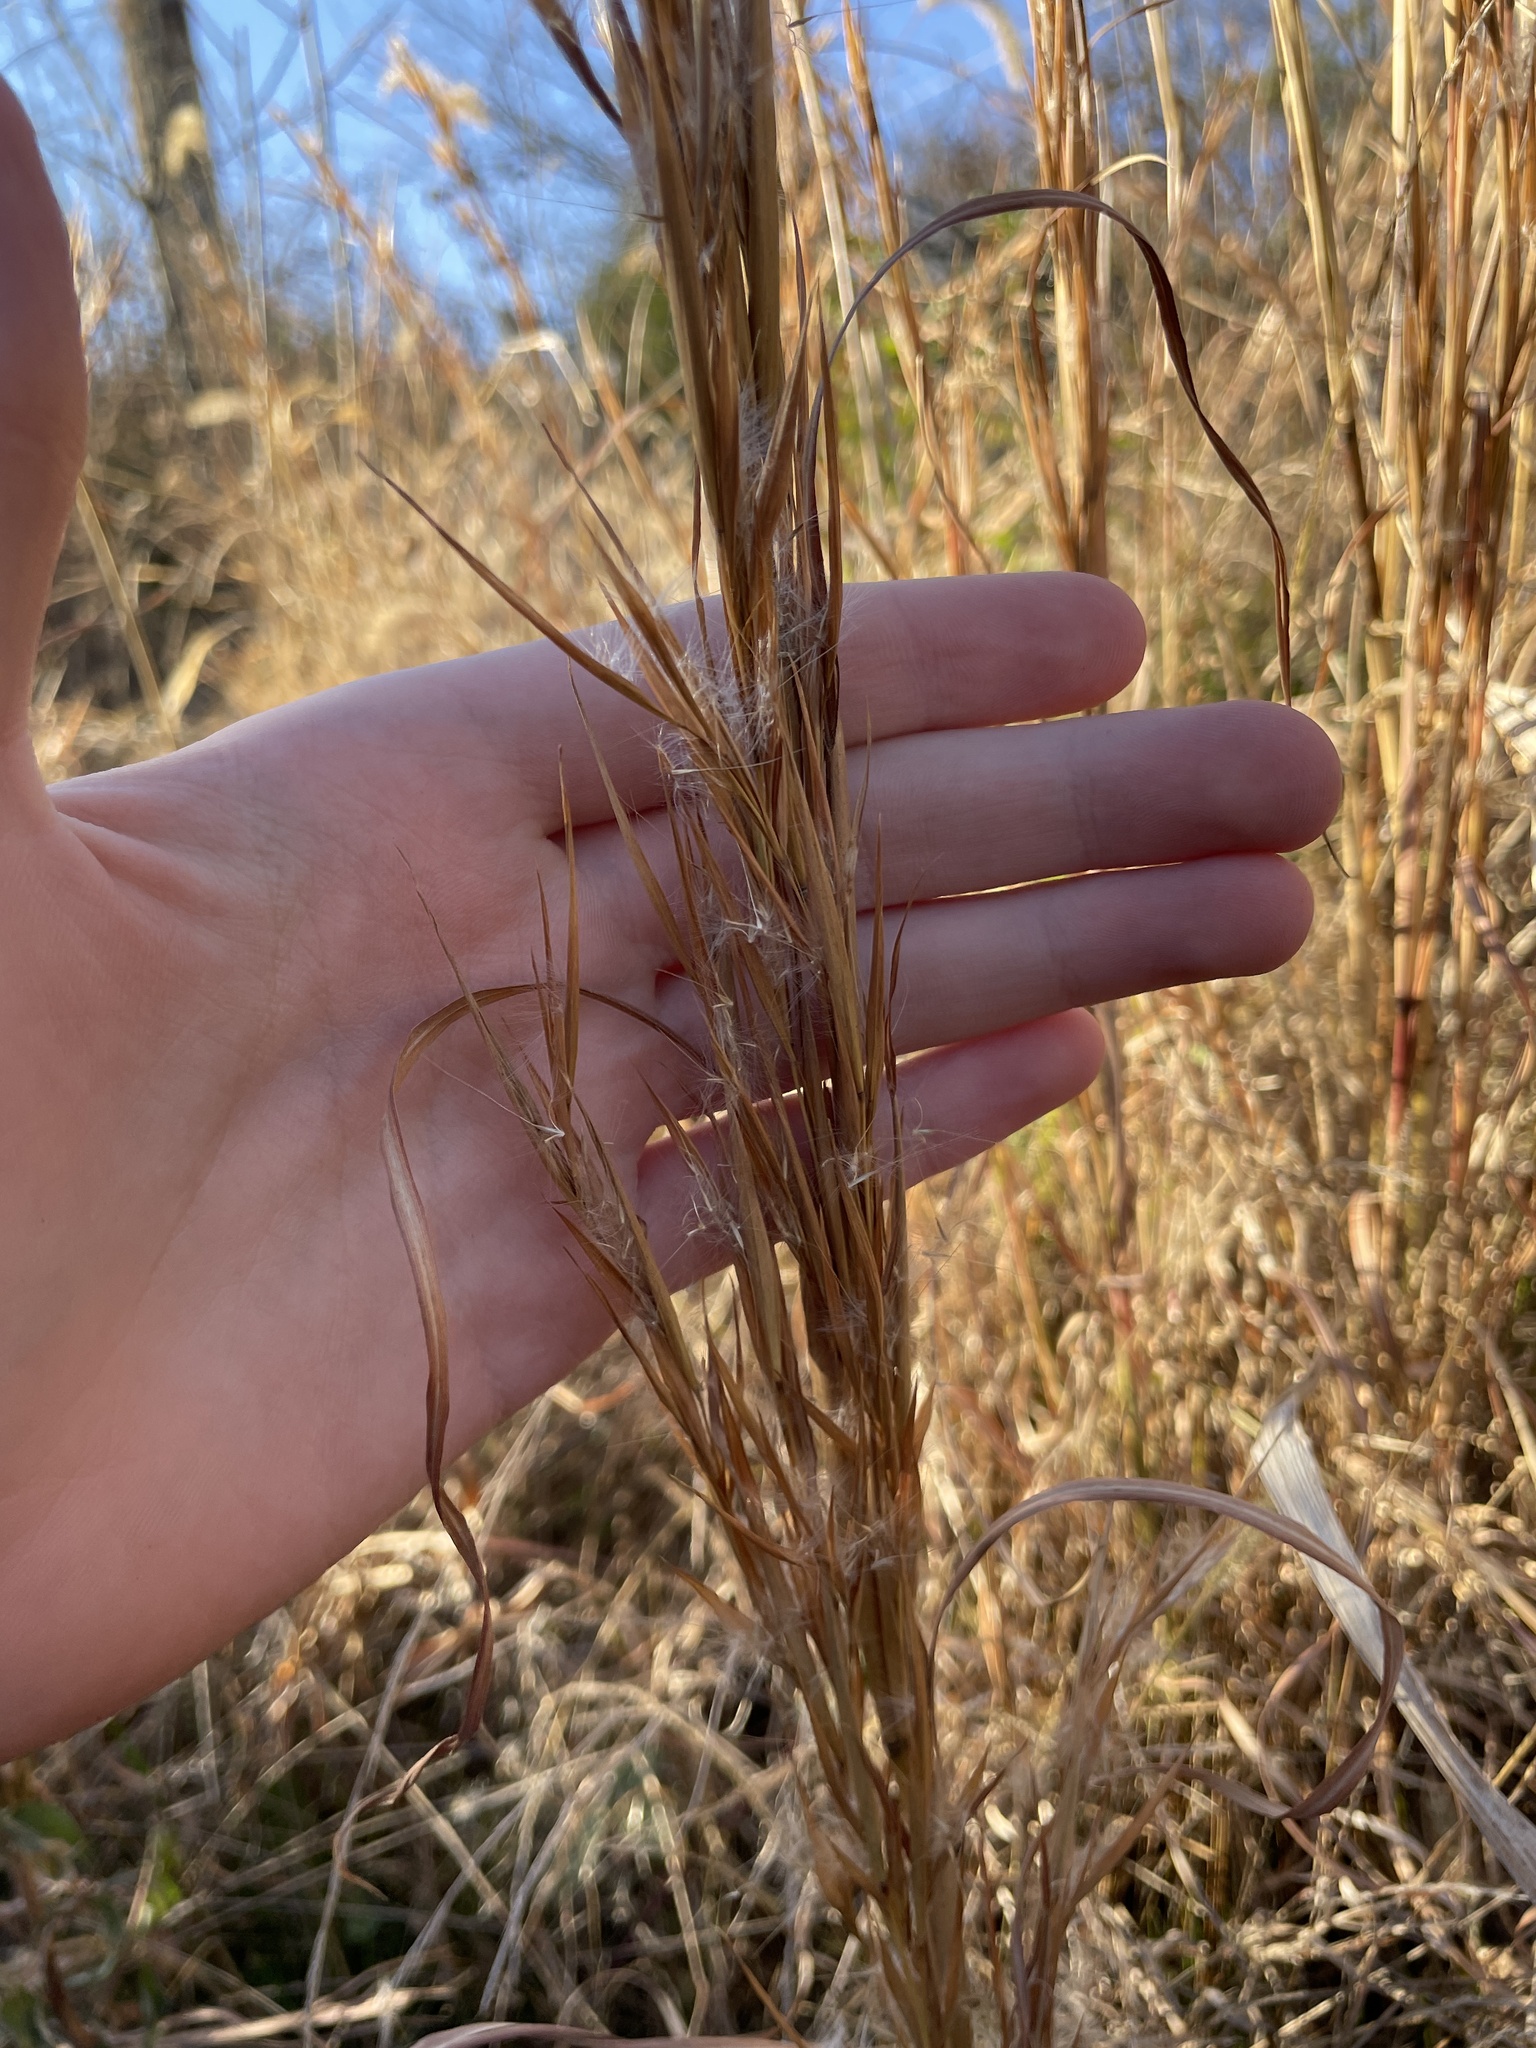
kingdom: Plantae
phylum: Tracheophyta
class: Liliopsida
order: Poales
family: Poaceae
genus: Andropogon
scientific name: Andropogon virginicus
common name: Broomsedge bluestem
